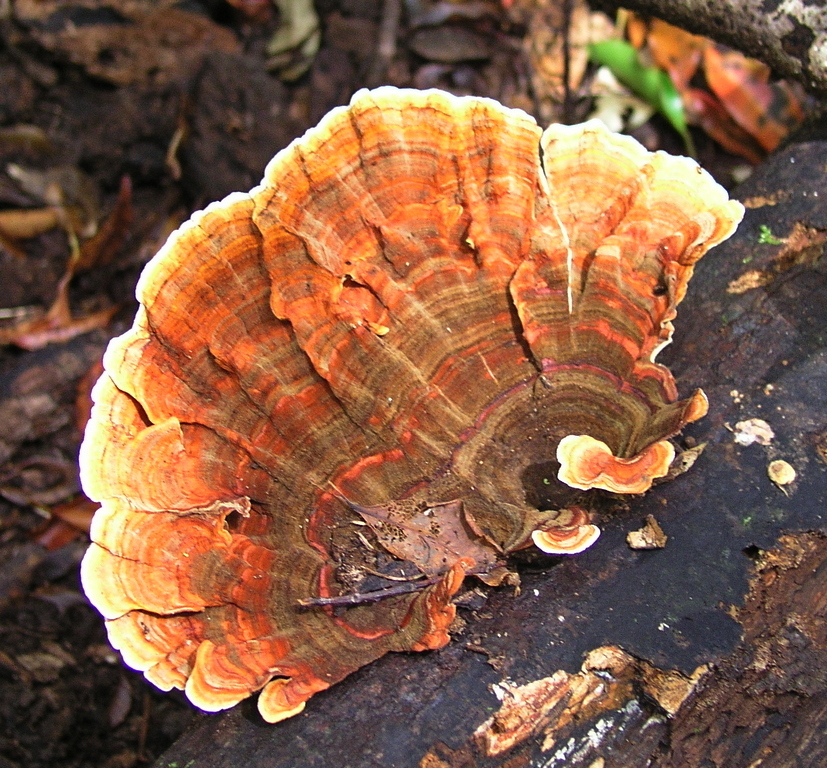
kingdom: Fungi
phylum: Basidiomycota
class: Agaricomycetes
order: Russulales
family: Stereaceae
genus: Stereum
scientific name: Stereum versicolor
